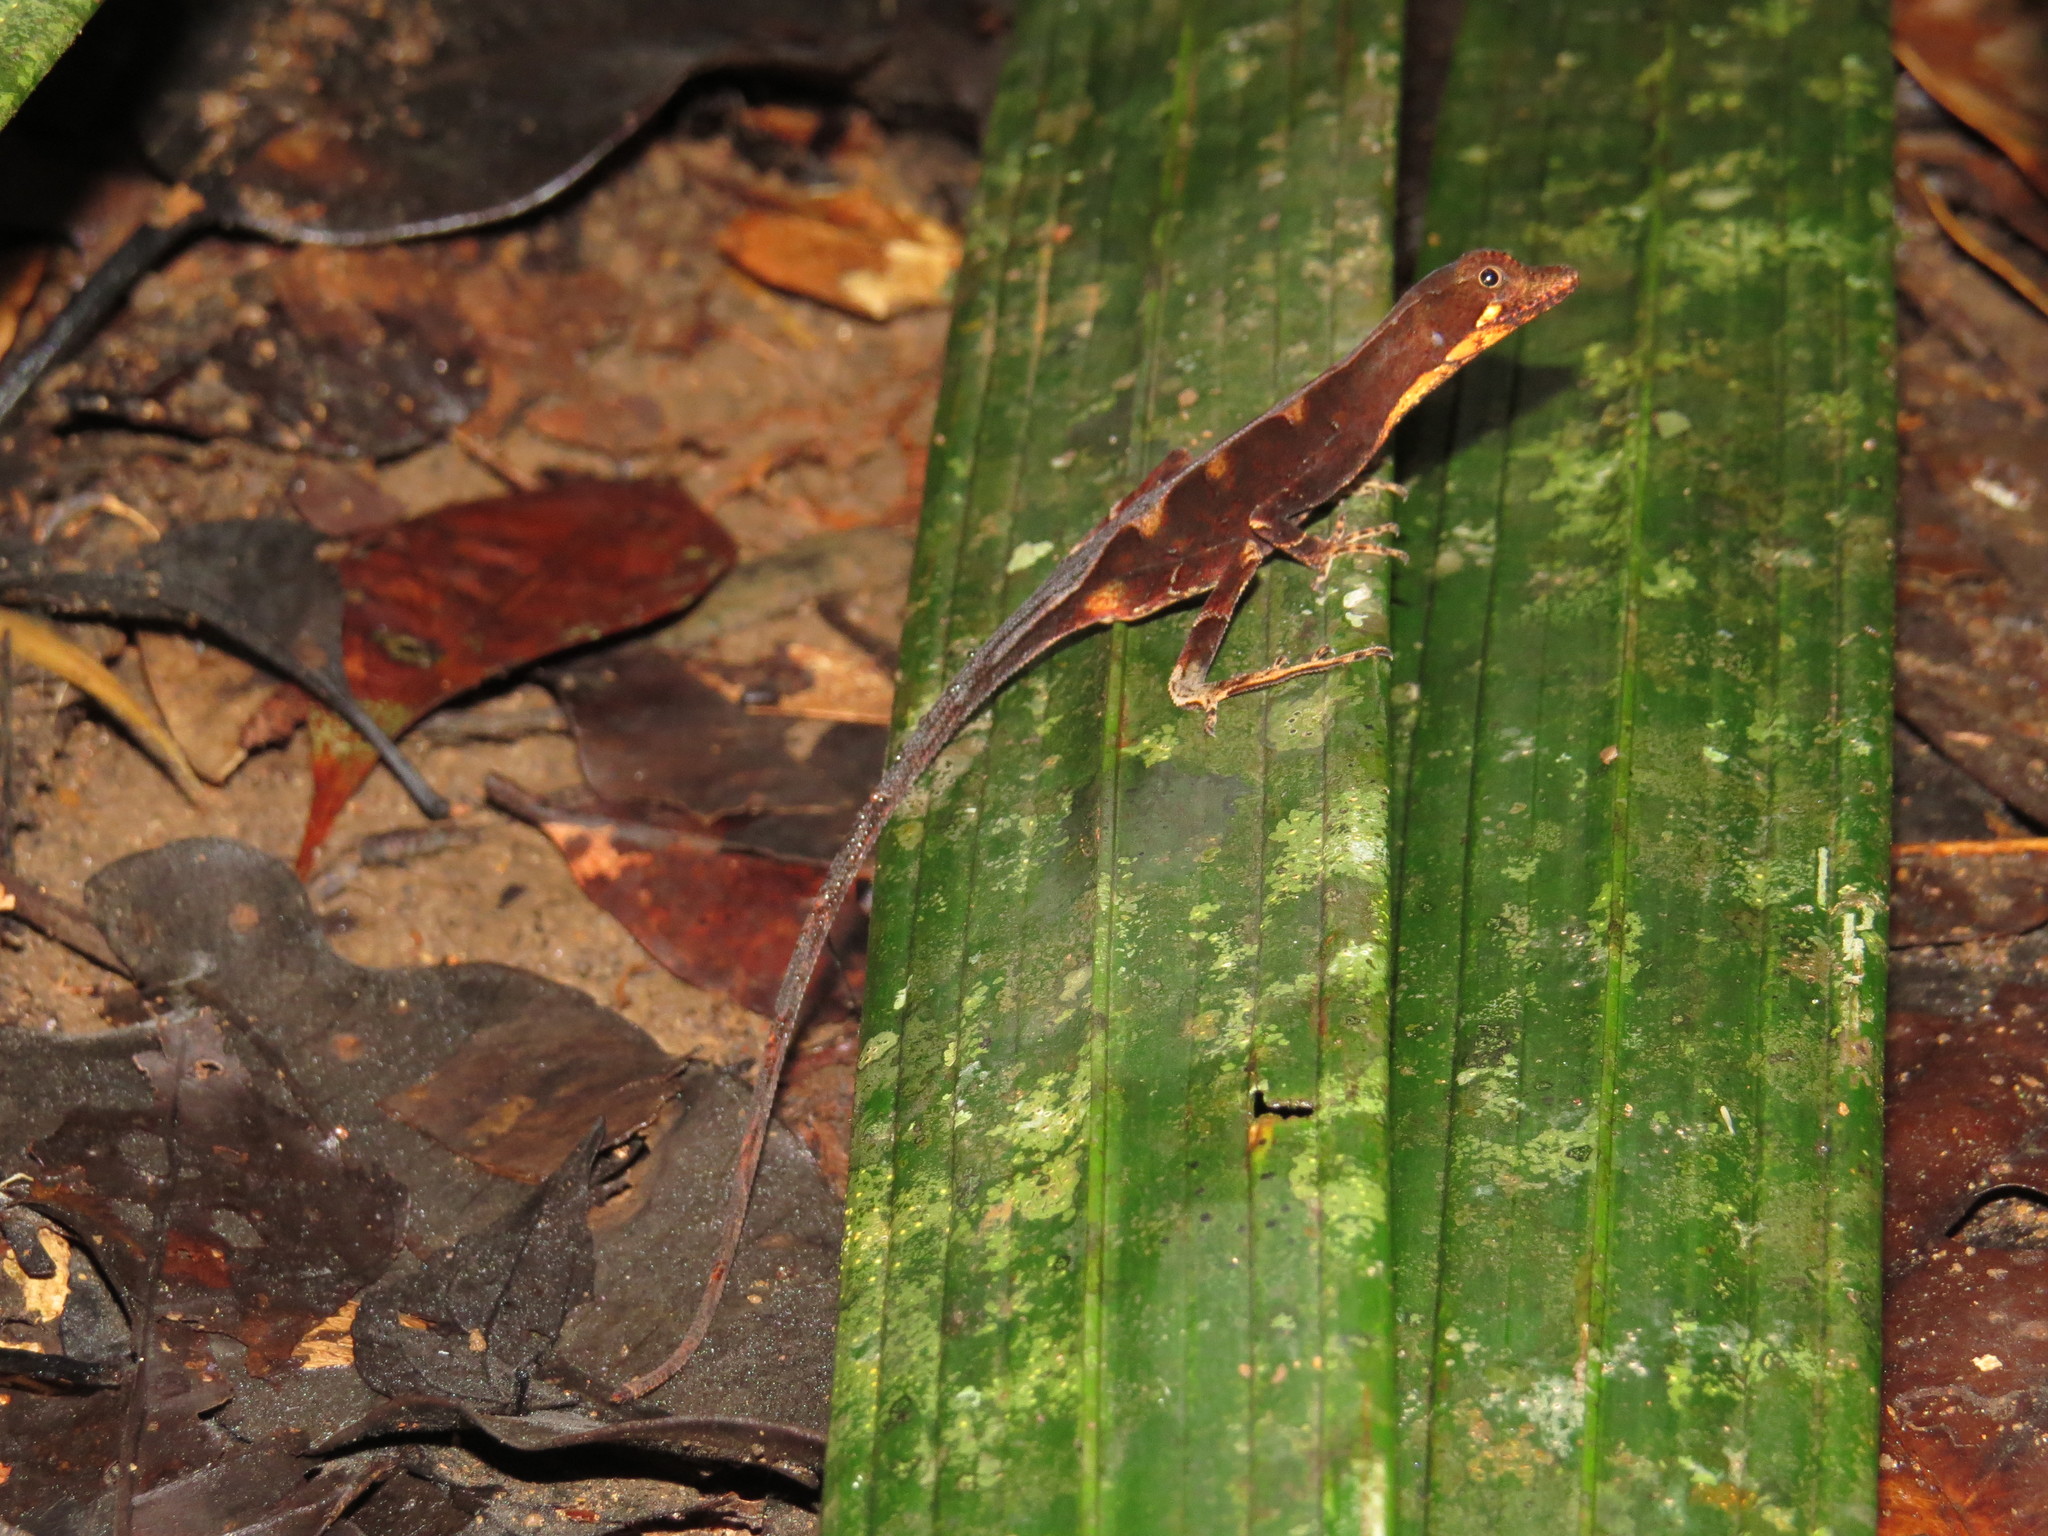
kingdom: Animalia
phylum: Chordata
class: Squamata
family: Dactyloidae
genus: Anolis
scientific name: Anolis chrysolepis
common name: Goldenscale anole
